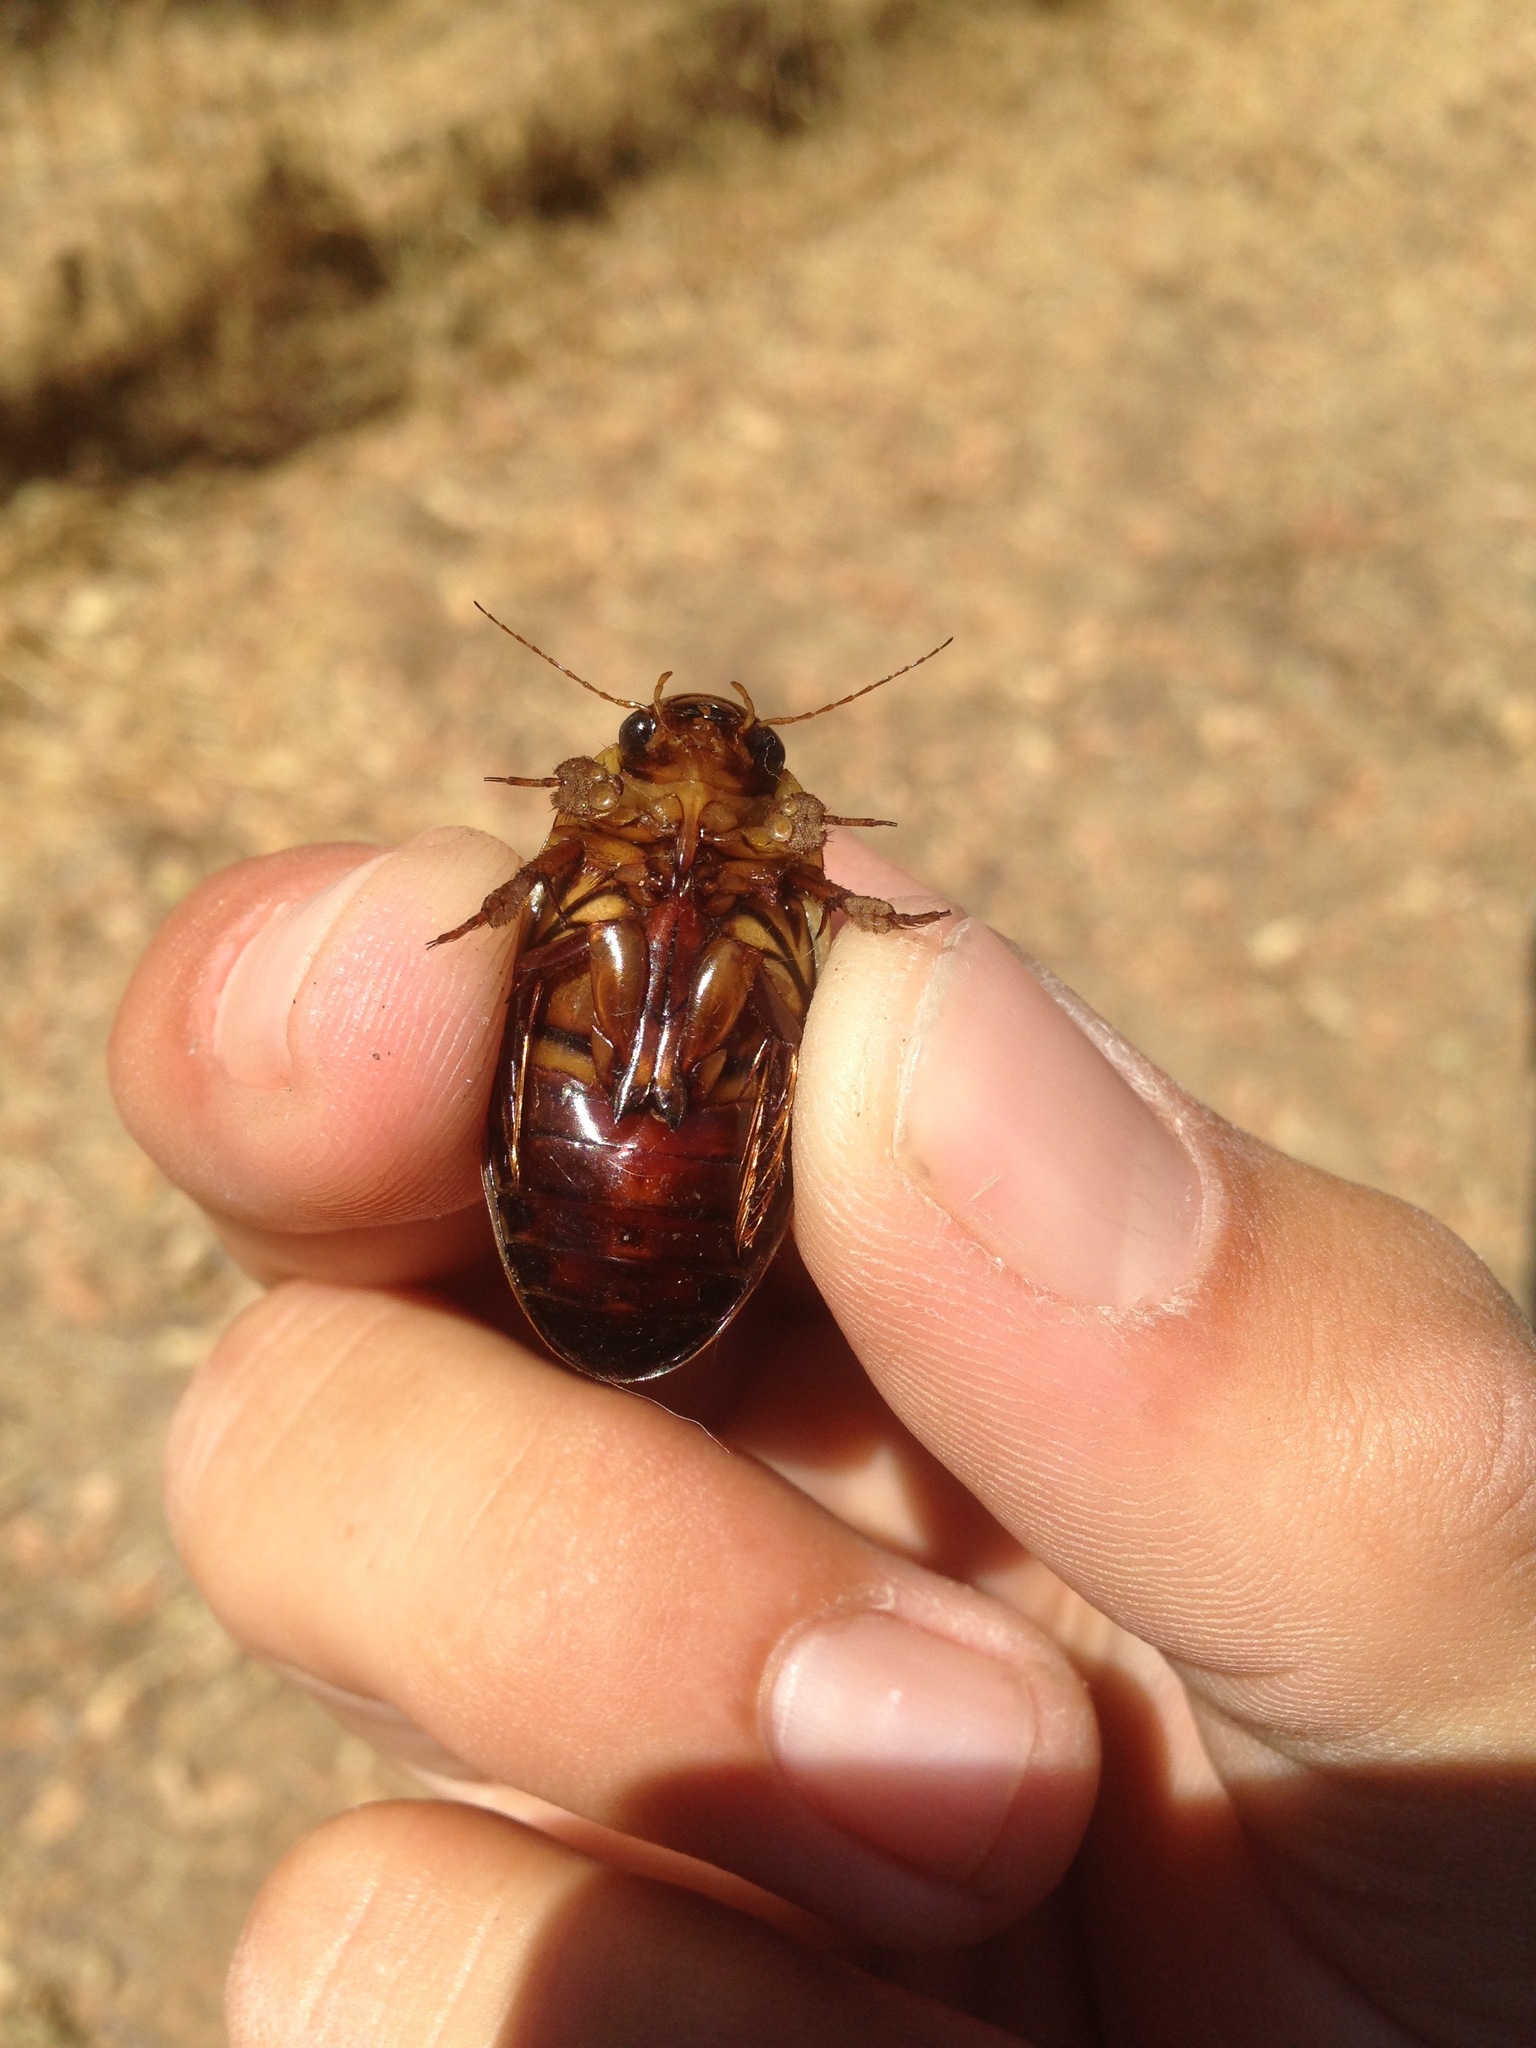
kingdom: Animalia
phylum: Arthropoda
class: Insecta
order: Coleoptera
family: Dytiscidae
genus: Dytiscus
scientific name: Dytiscus marginicollis
